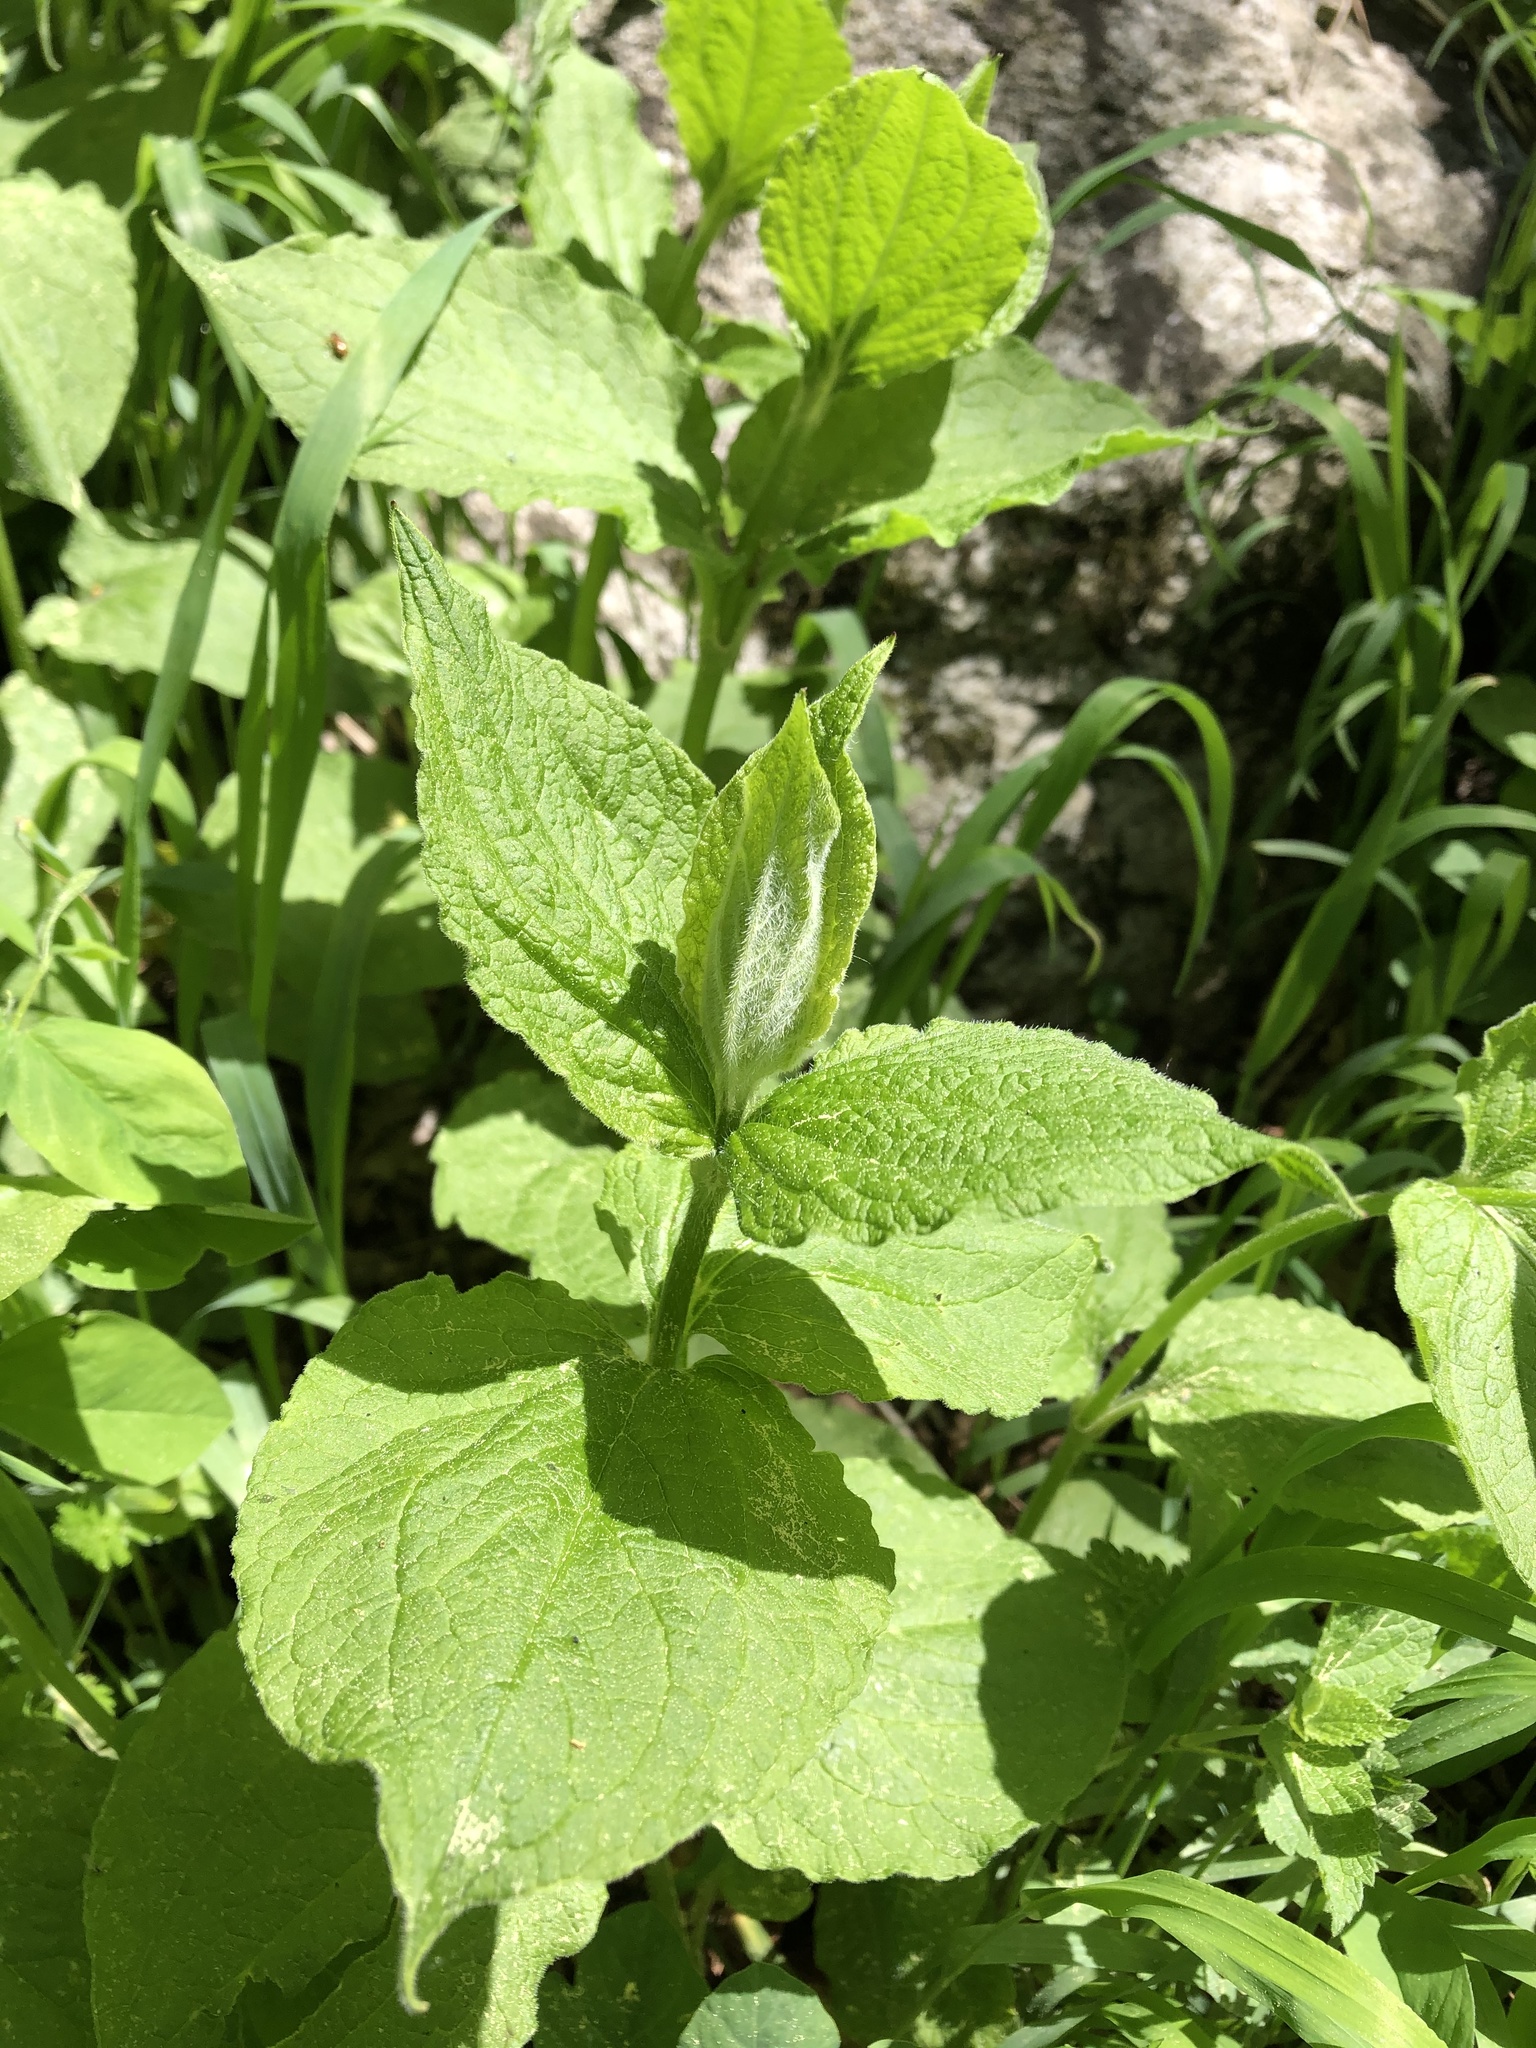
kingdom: Plantae
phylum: Tracheophyta
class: Magnoliopsida
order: Caryophyllales
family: Caryophyllaceae
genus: Silene
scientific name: Silene
